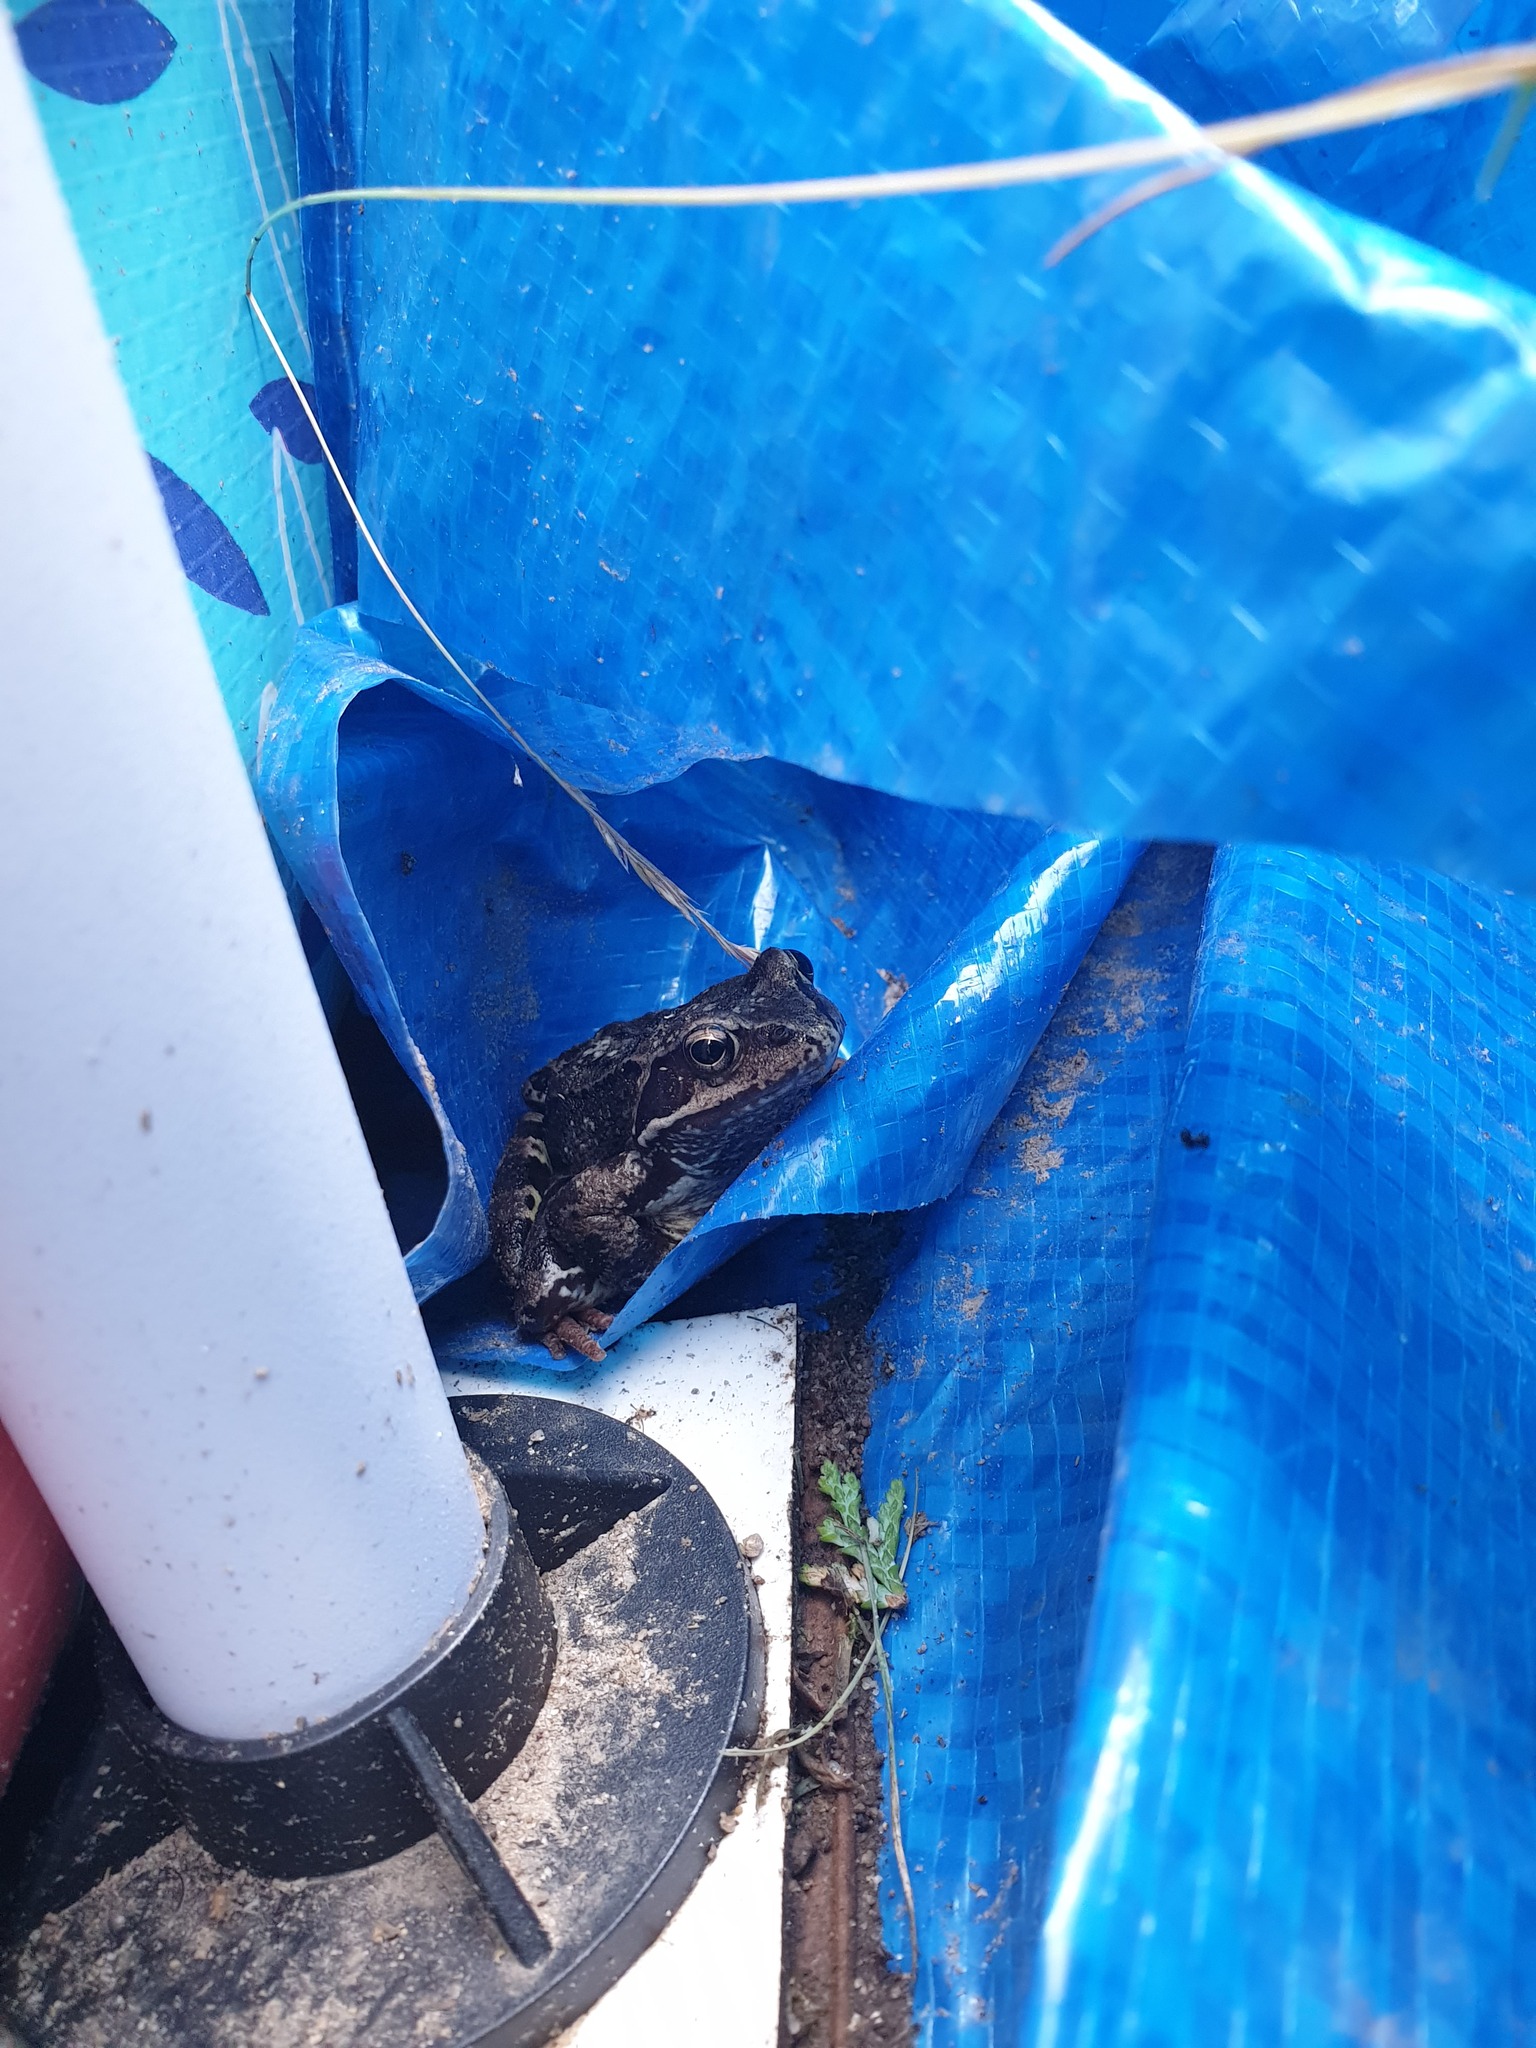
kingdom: Animalia
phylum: Chordata
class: Amphibia
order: Anura
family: Ranidae
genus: Rana
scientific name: Rana temporaria
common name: Common frog
